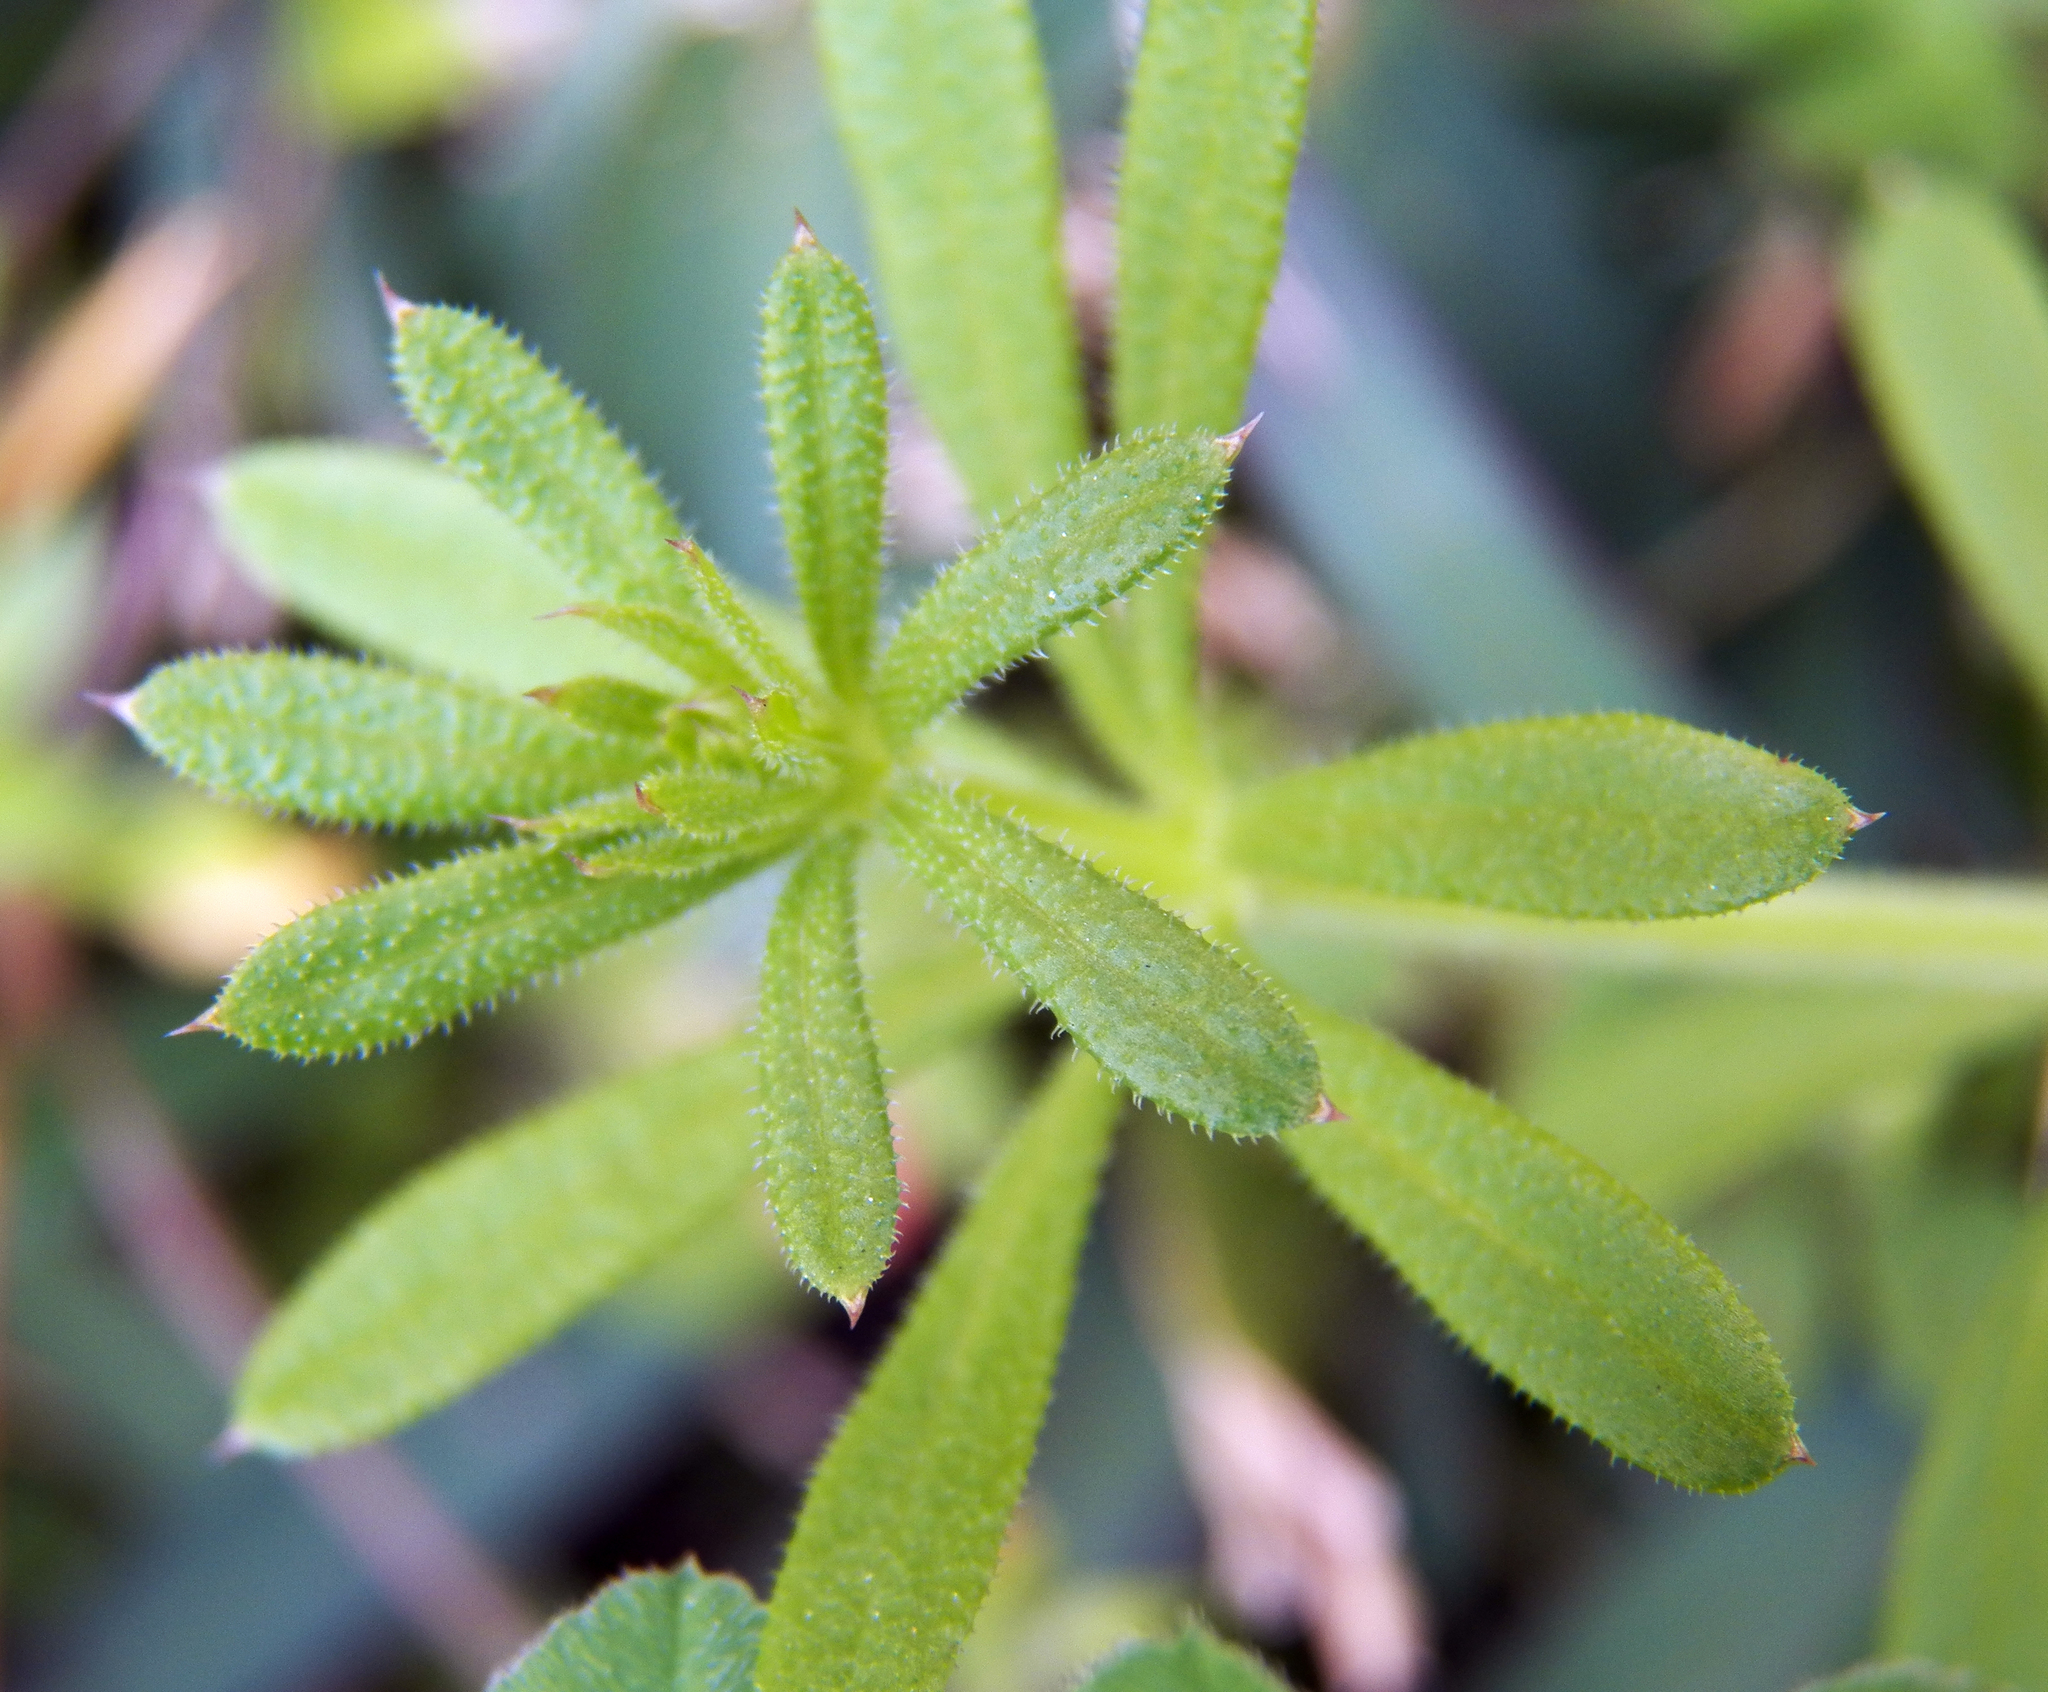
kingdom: Plantae
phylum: Tracheophyta
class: Magnoliopsida
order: Gentianales
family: Rubiaceae
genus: Galium
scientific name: Galium aparine
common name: Cleavers
